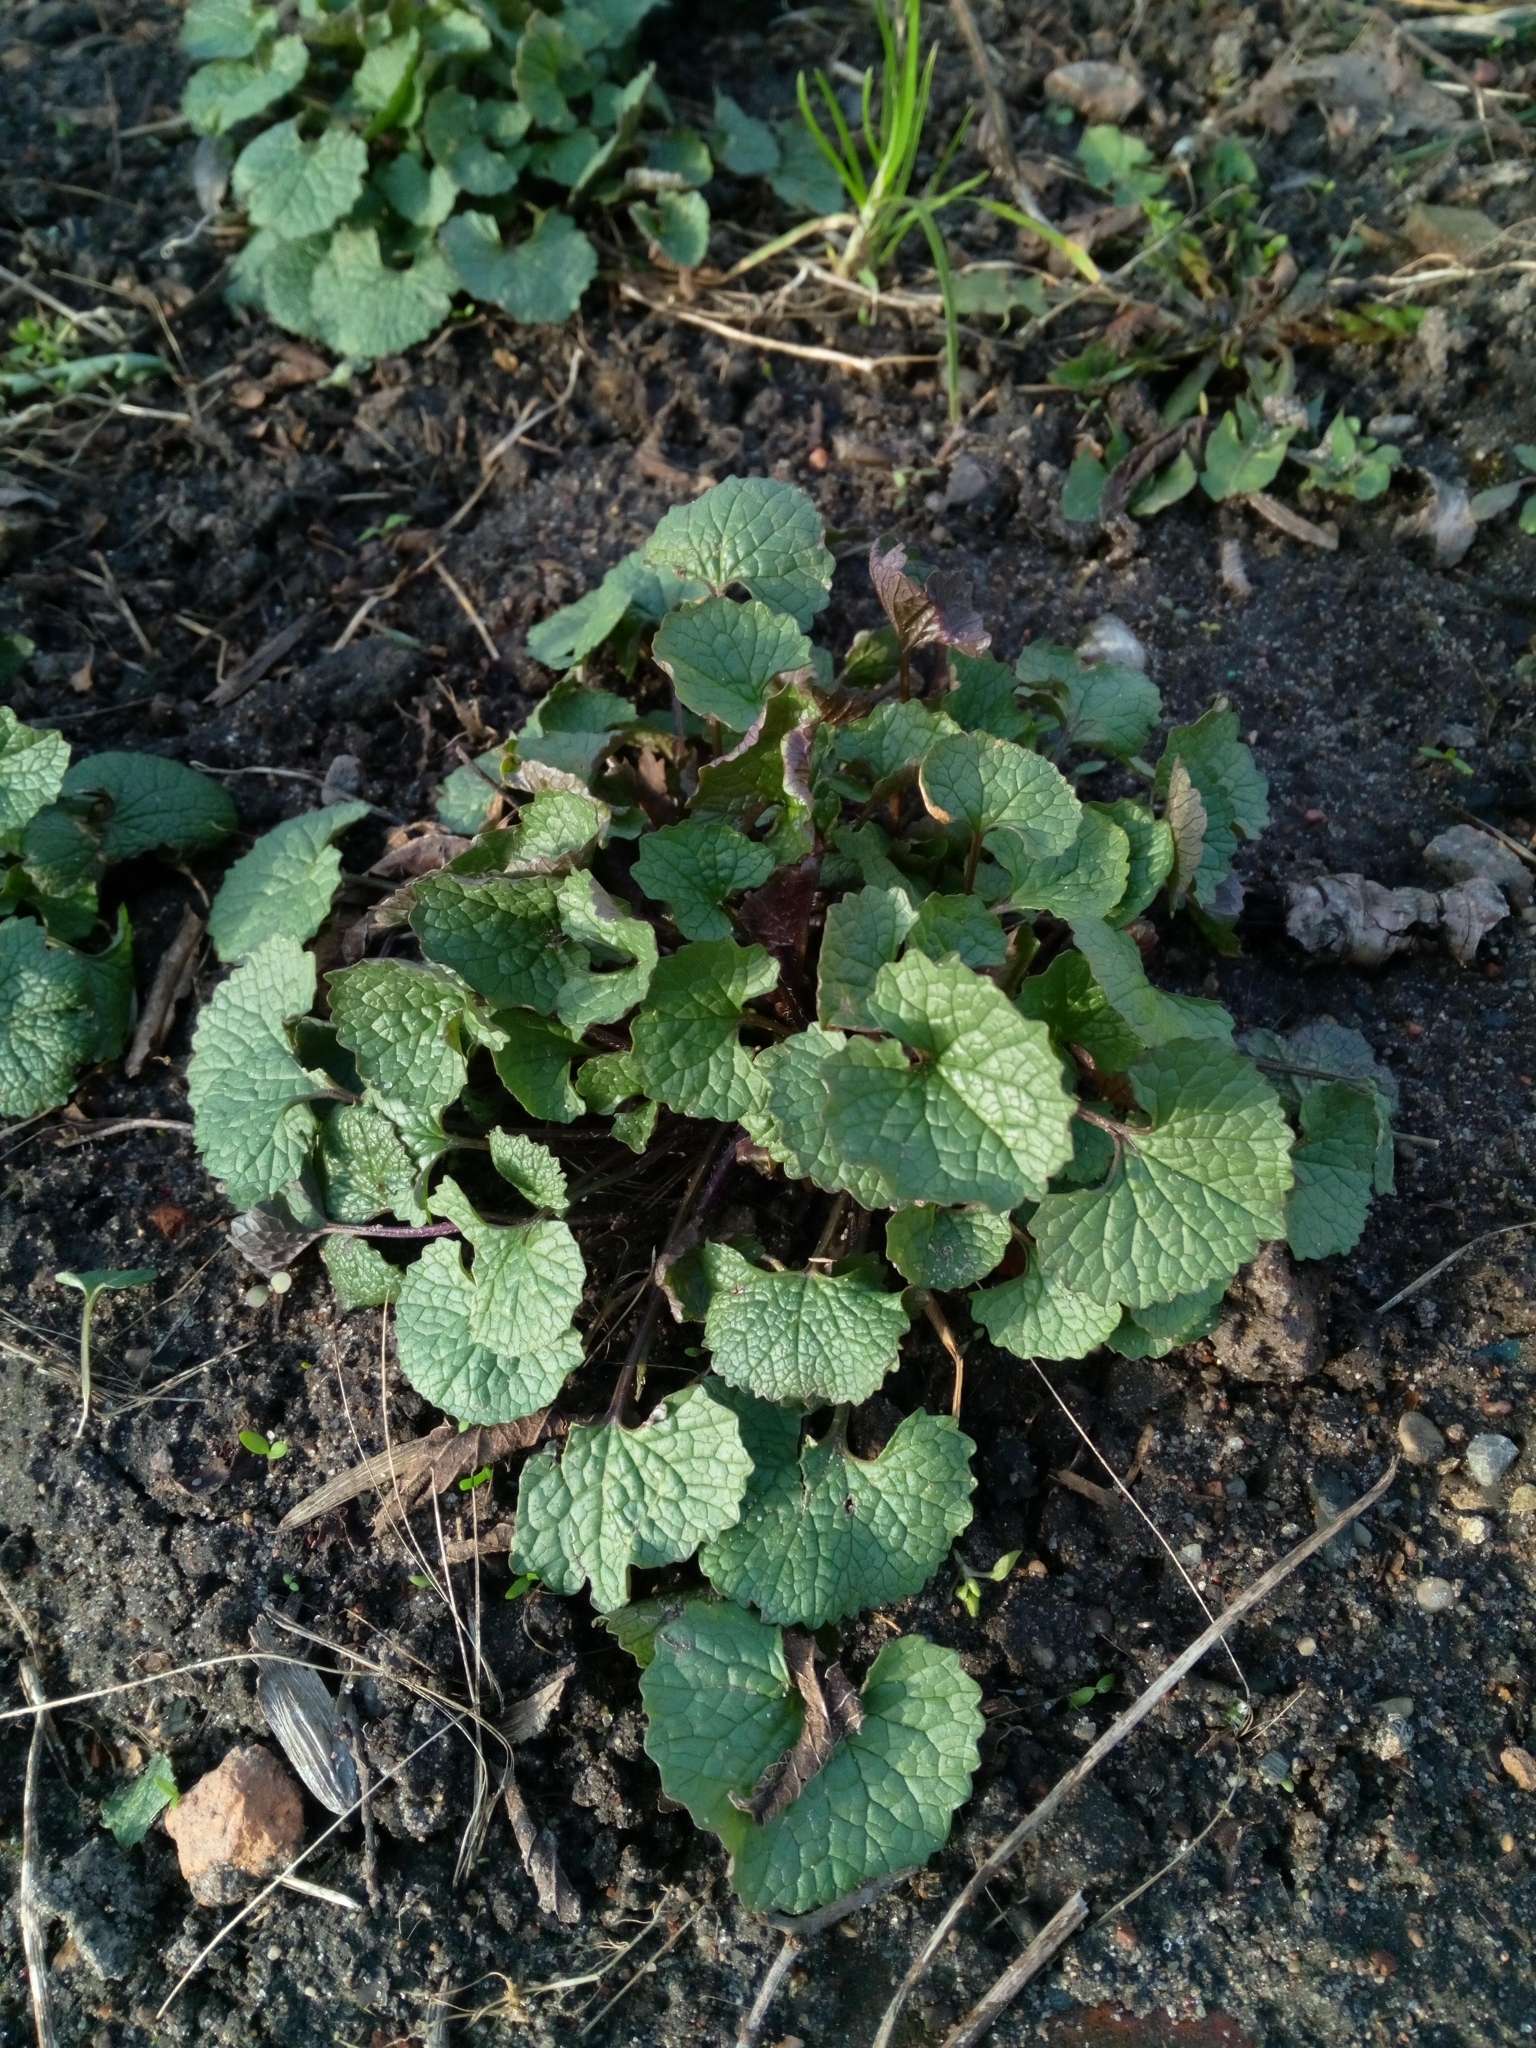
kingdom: Plantae
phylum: Tracheophyta
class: Magnoliopsida
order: Brassicales
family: Brassicaceae
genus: Alliaria
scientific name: Alliaria petiolata
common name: Garlic mustard
